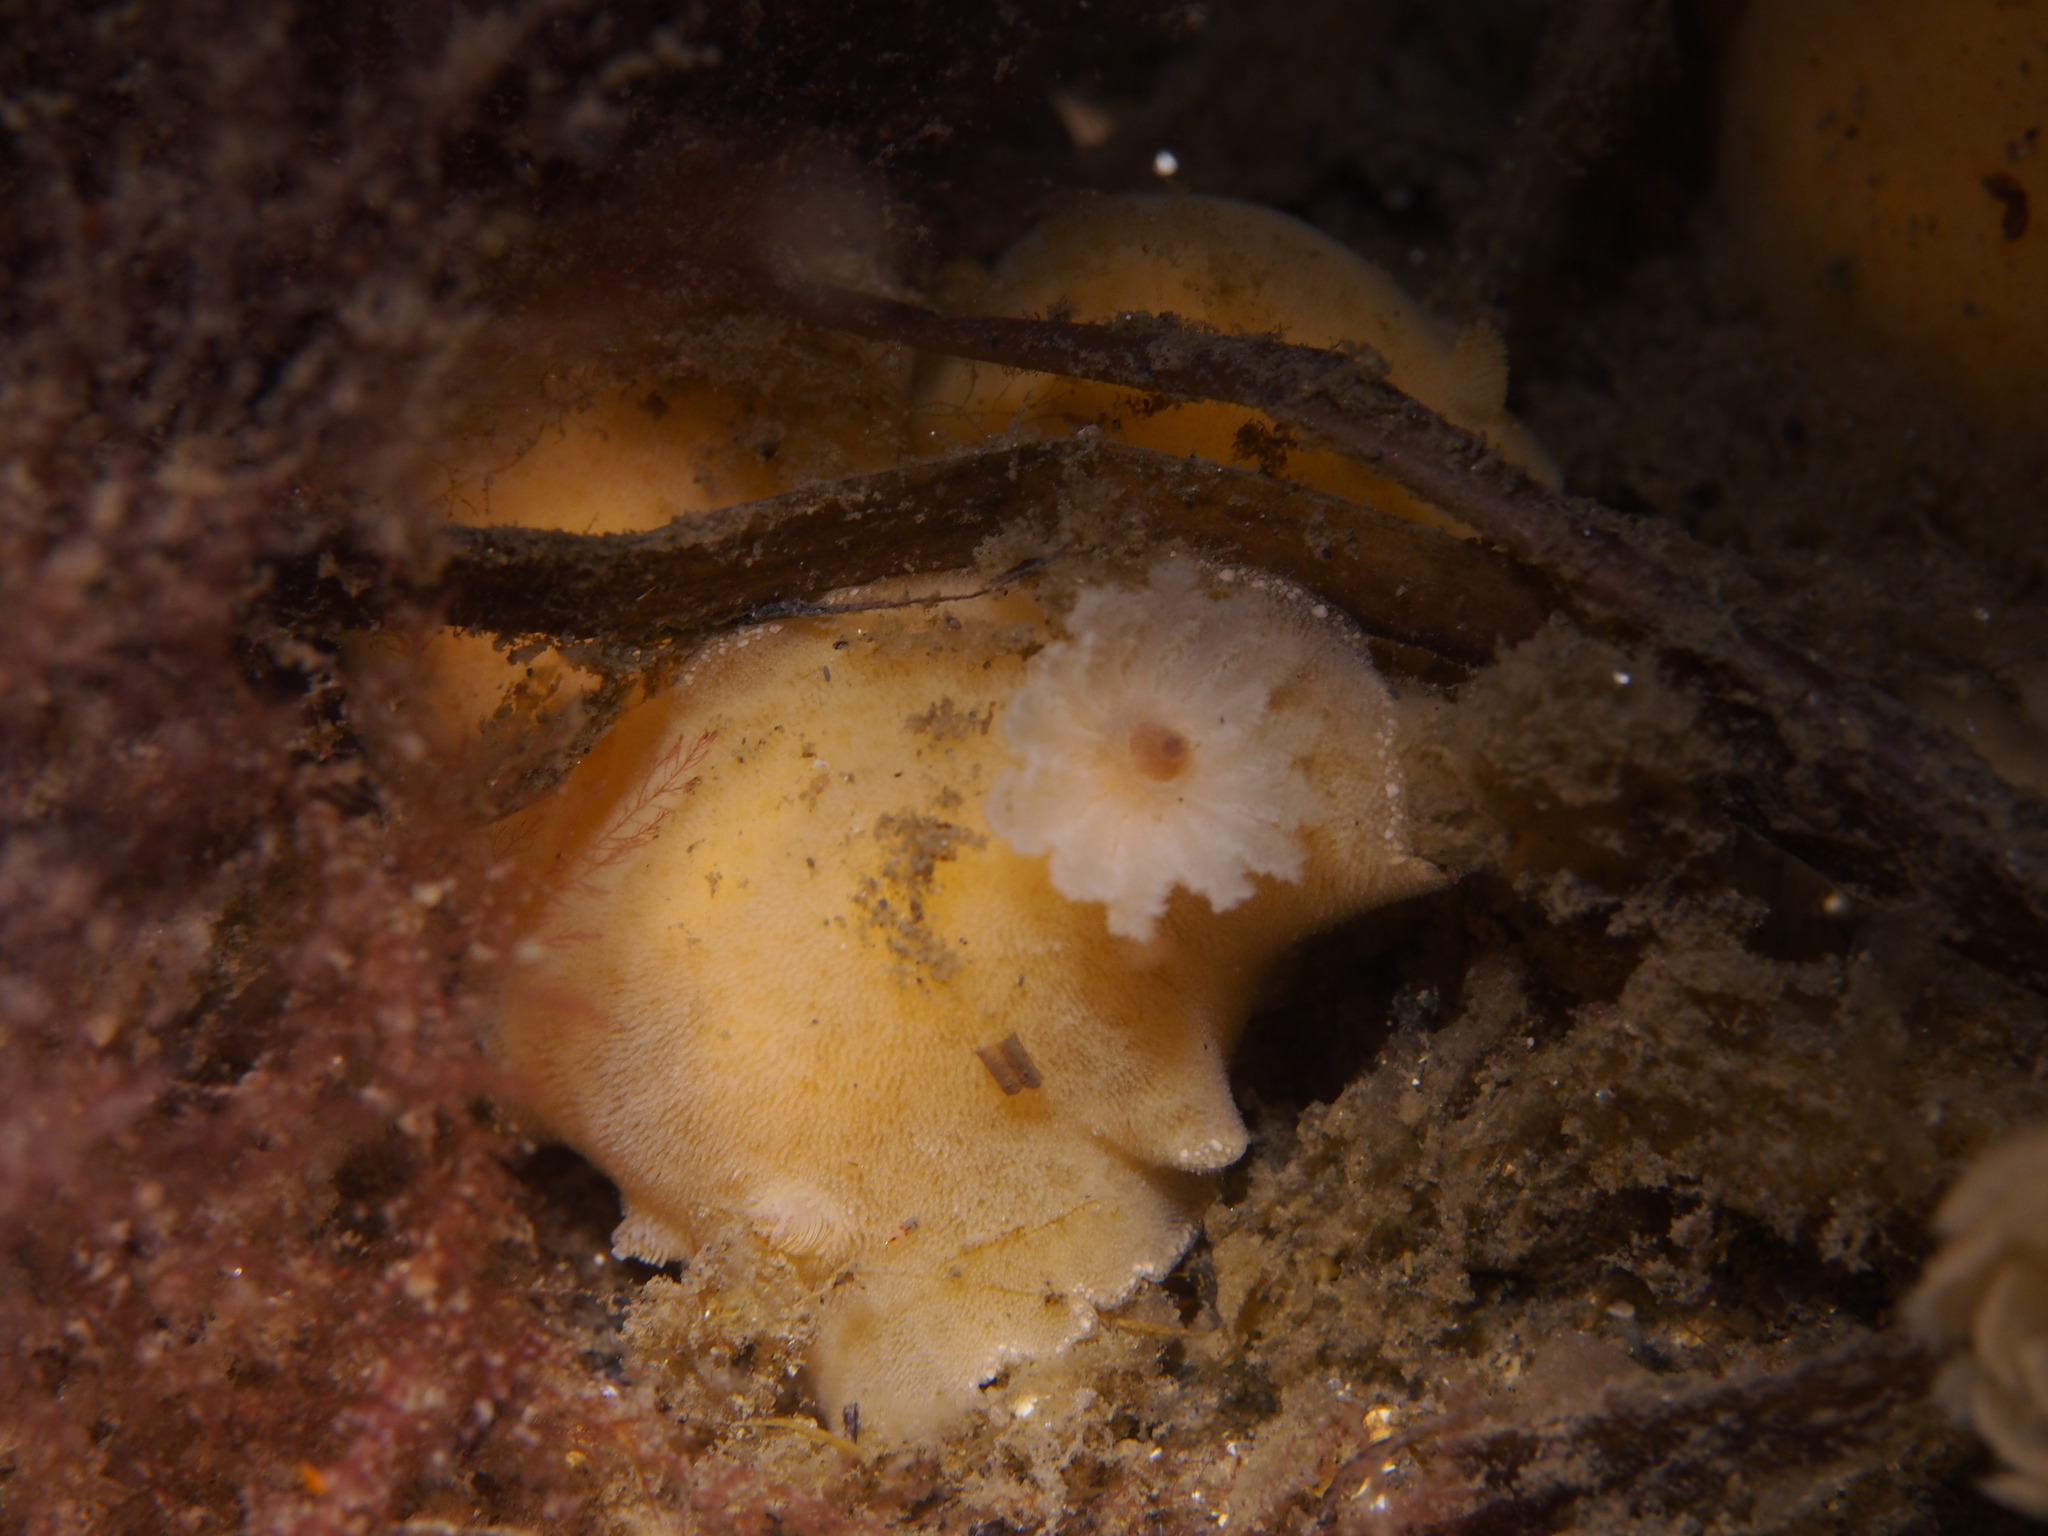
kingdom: Animalia
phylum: Mollusca
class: Gastropoda
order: Nudibranchia
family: Discodorididae
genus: Jorunna
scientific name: Jorunna tomentosa
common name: Grey sea slug
